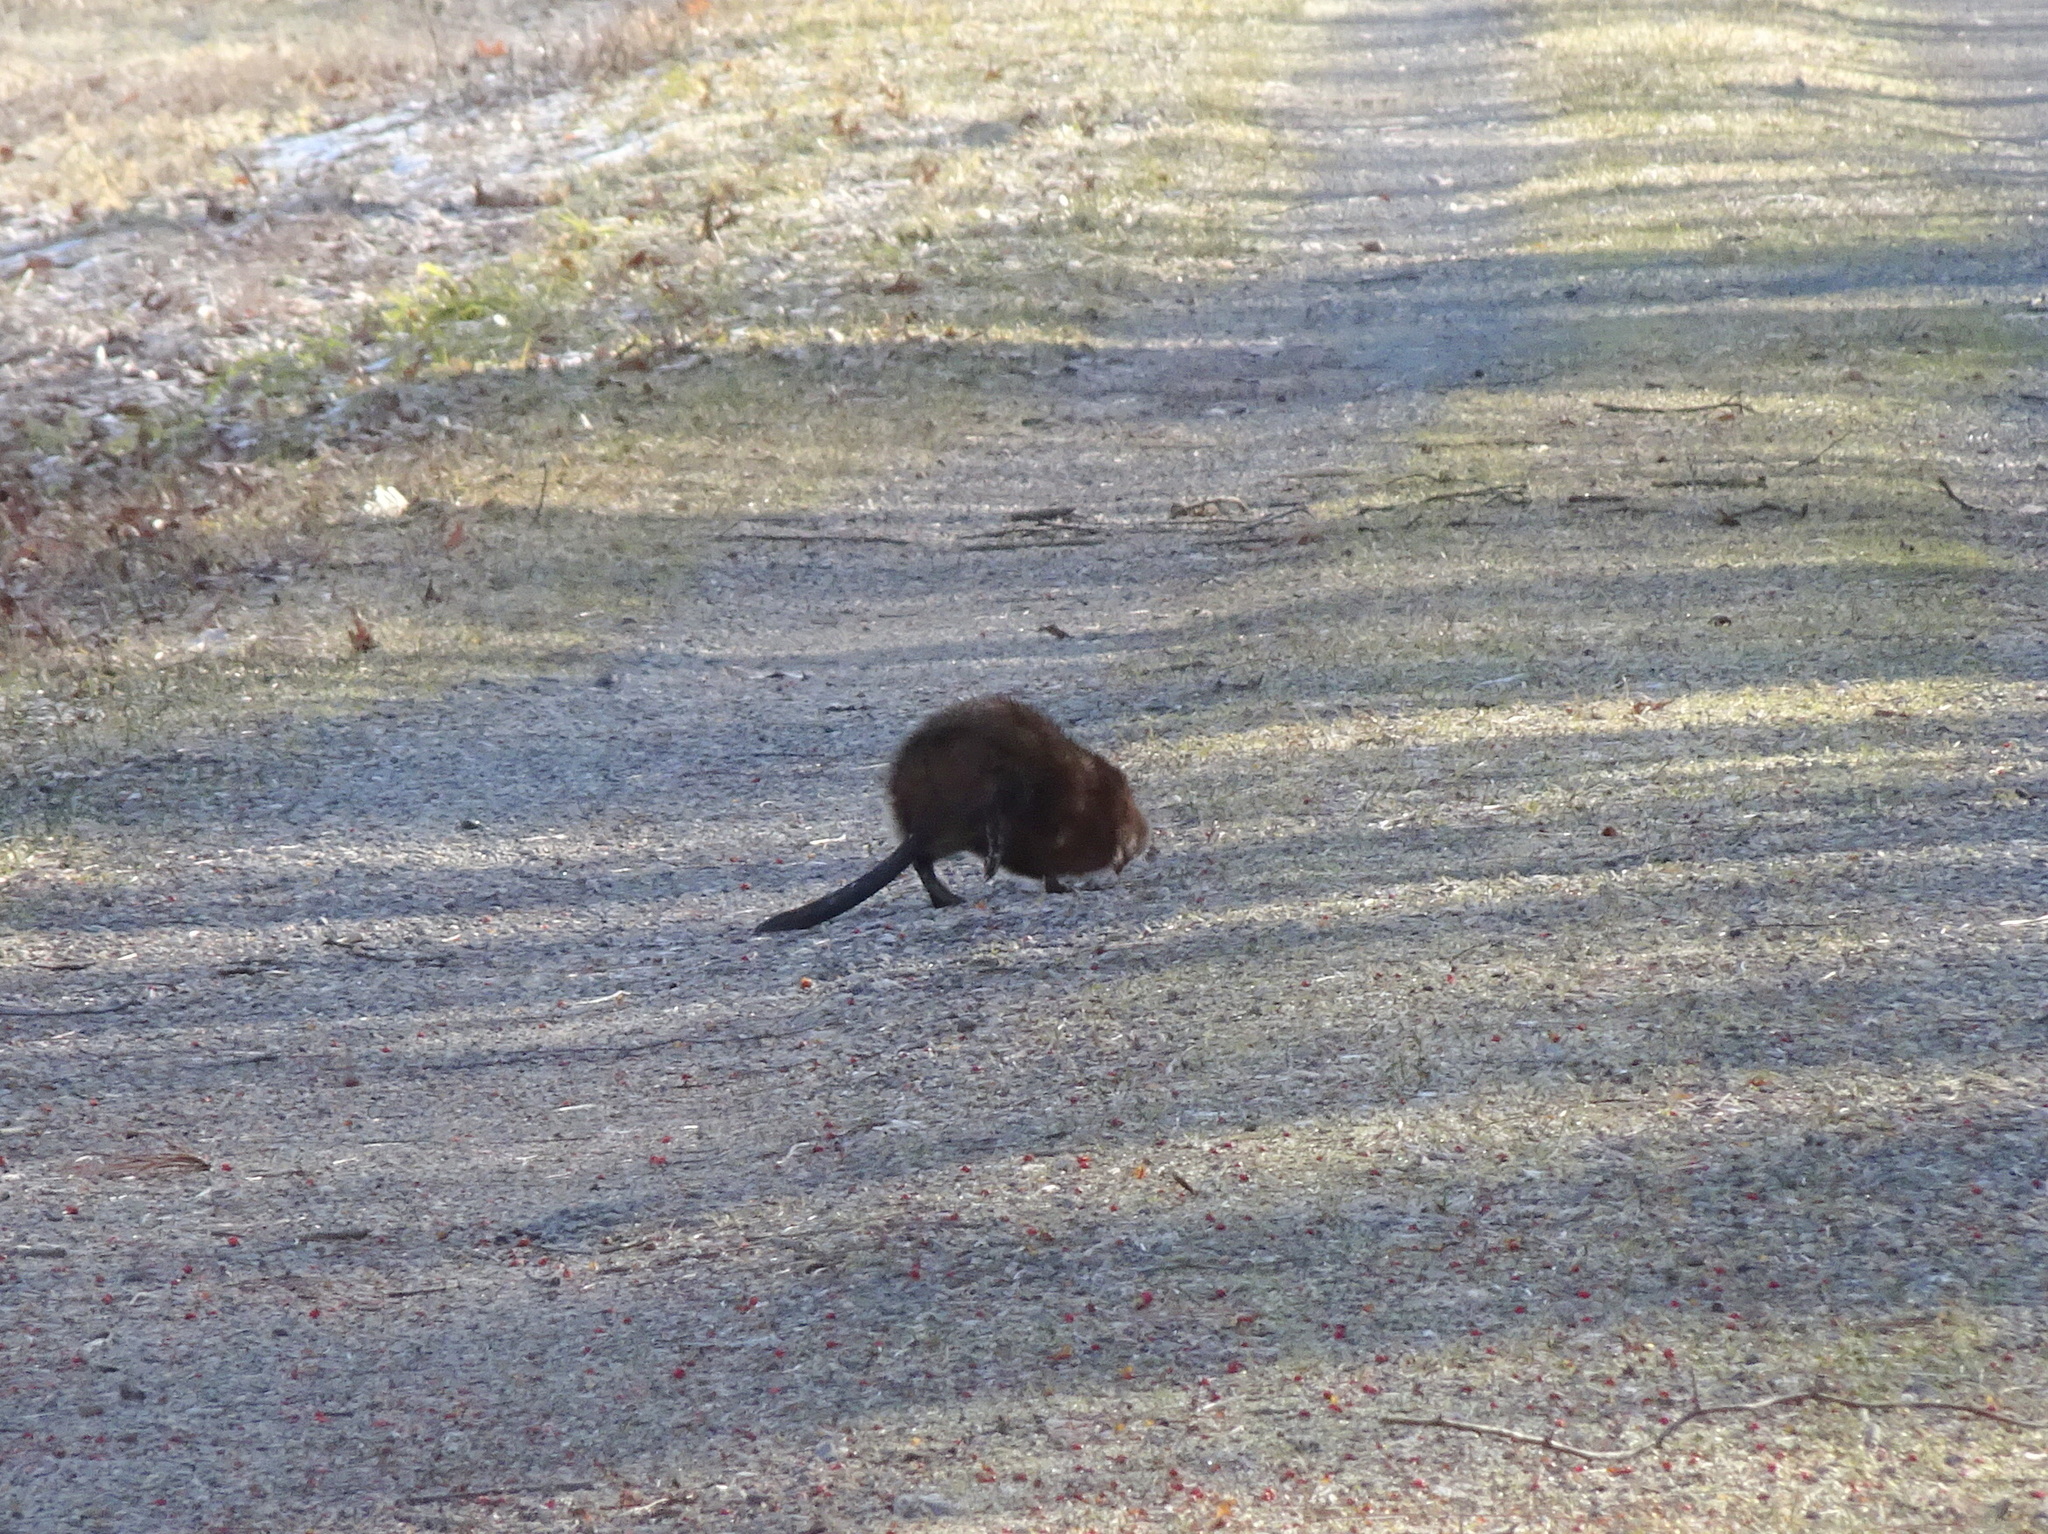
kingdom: Animalia
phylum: Chordata
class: Mammalia
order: Rodentia
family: Cricetidae
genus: Ondatra
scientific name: Ondatra zibethicus
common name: Muskrat
